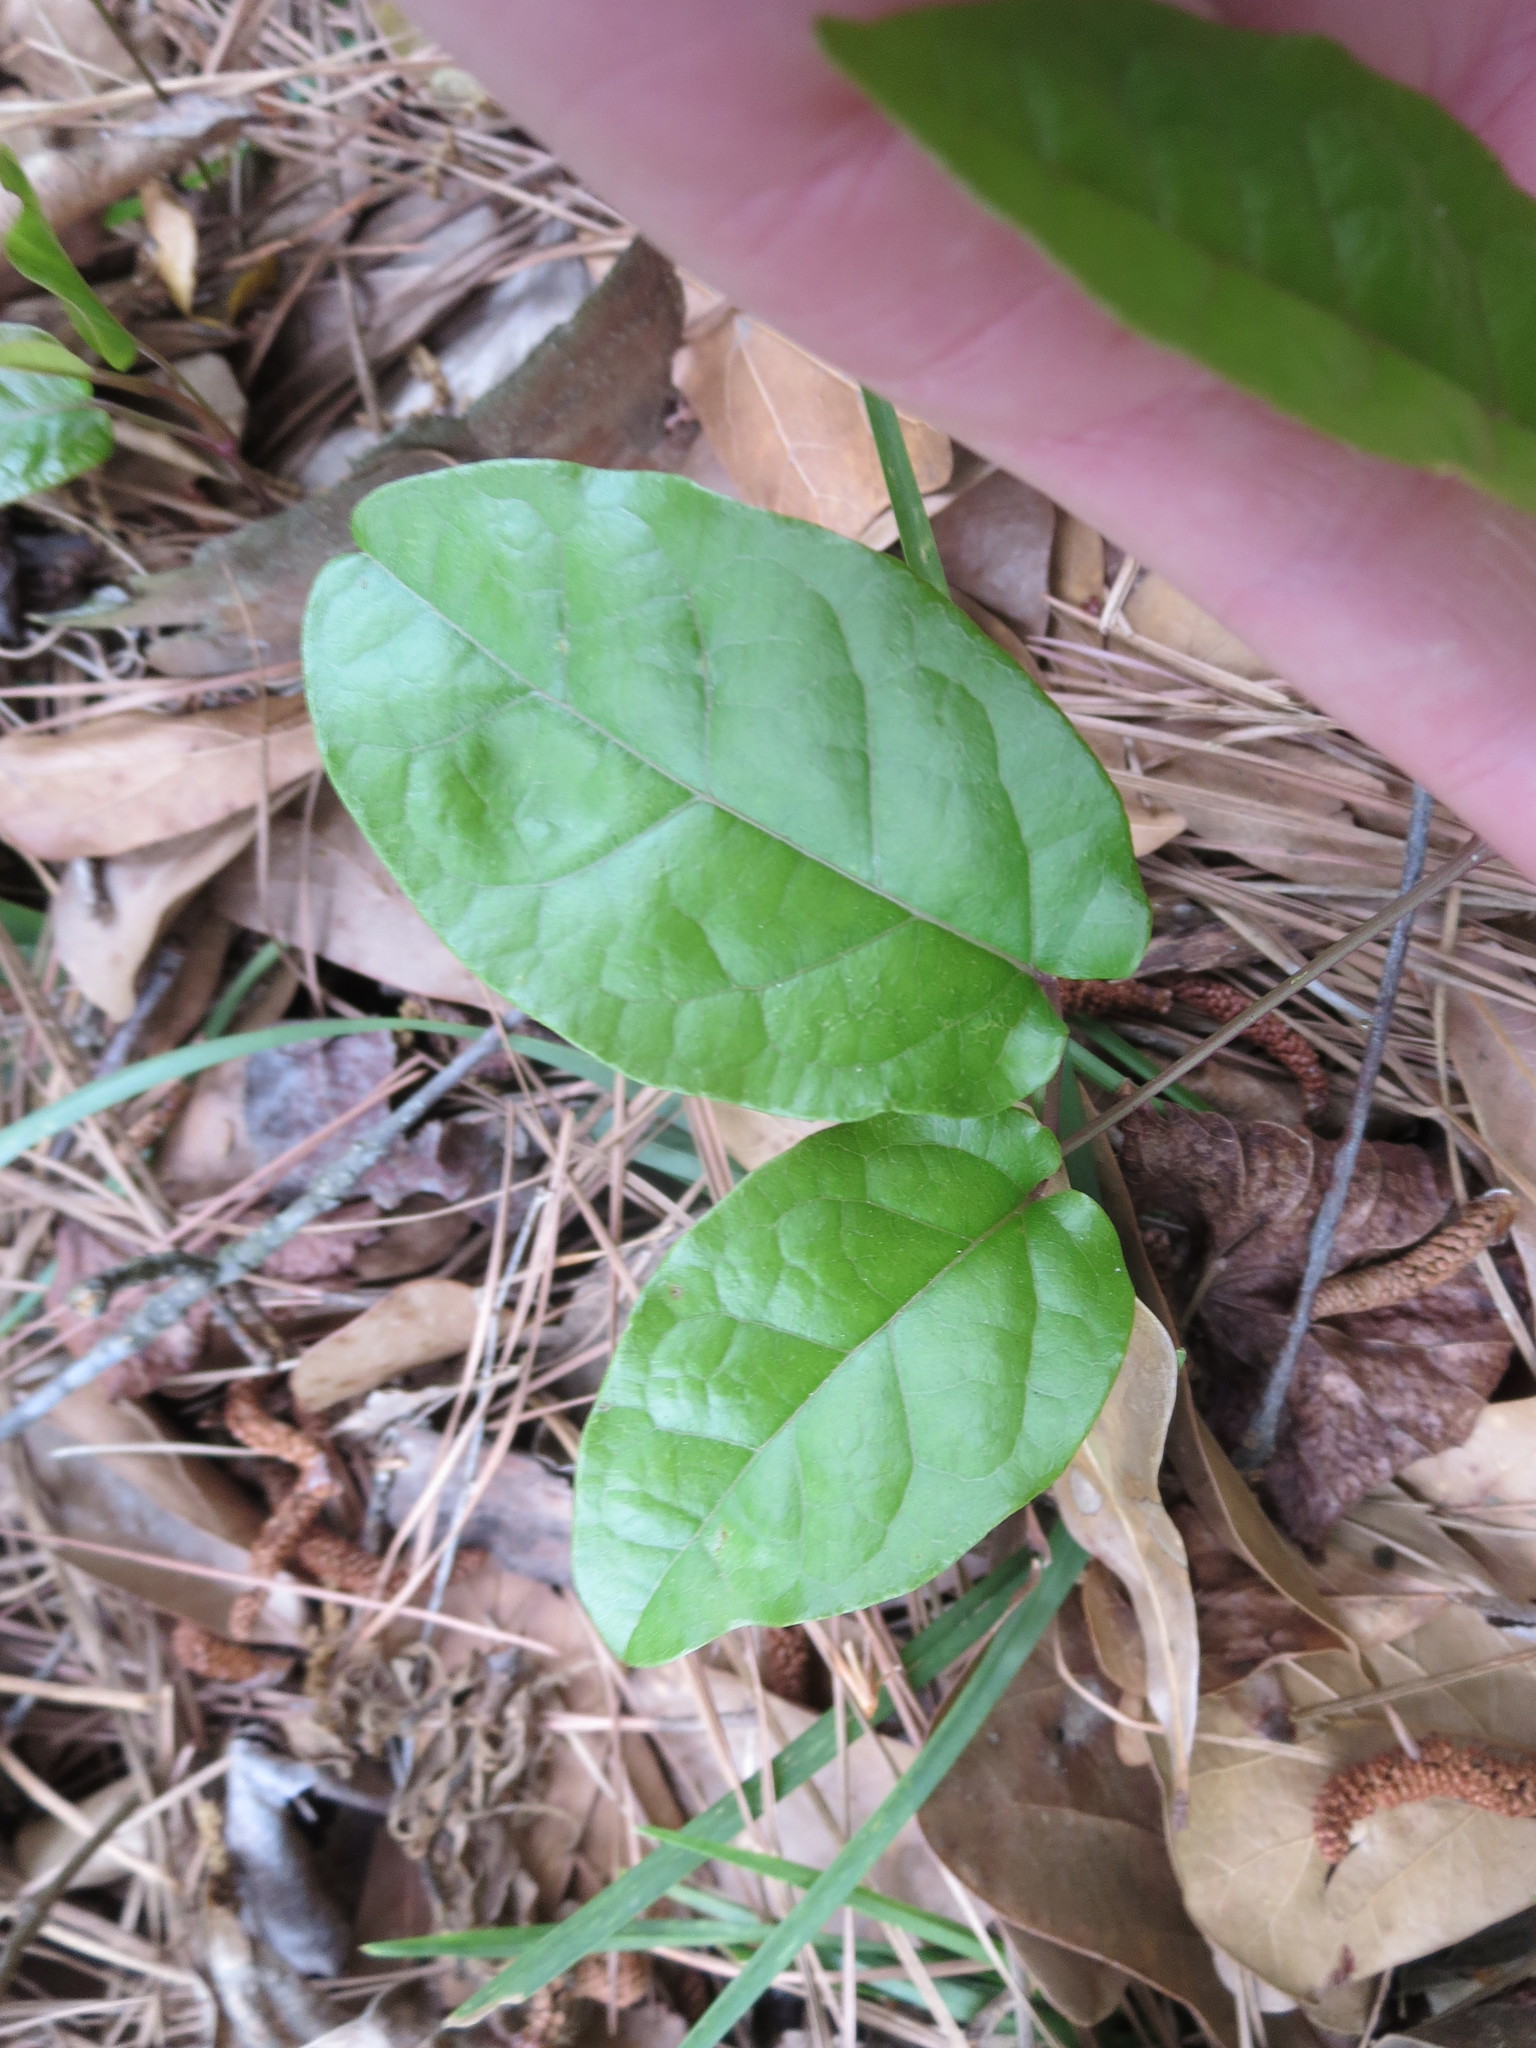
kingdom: Plantae
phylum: Tracheophyta
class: Magnoliopsida
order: Lamiales
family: Bignoniaceae
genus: Bignonia
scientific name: Bignonia capreolata
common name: Crossvine
